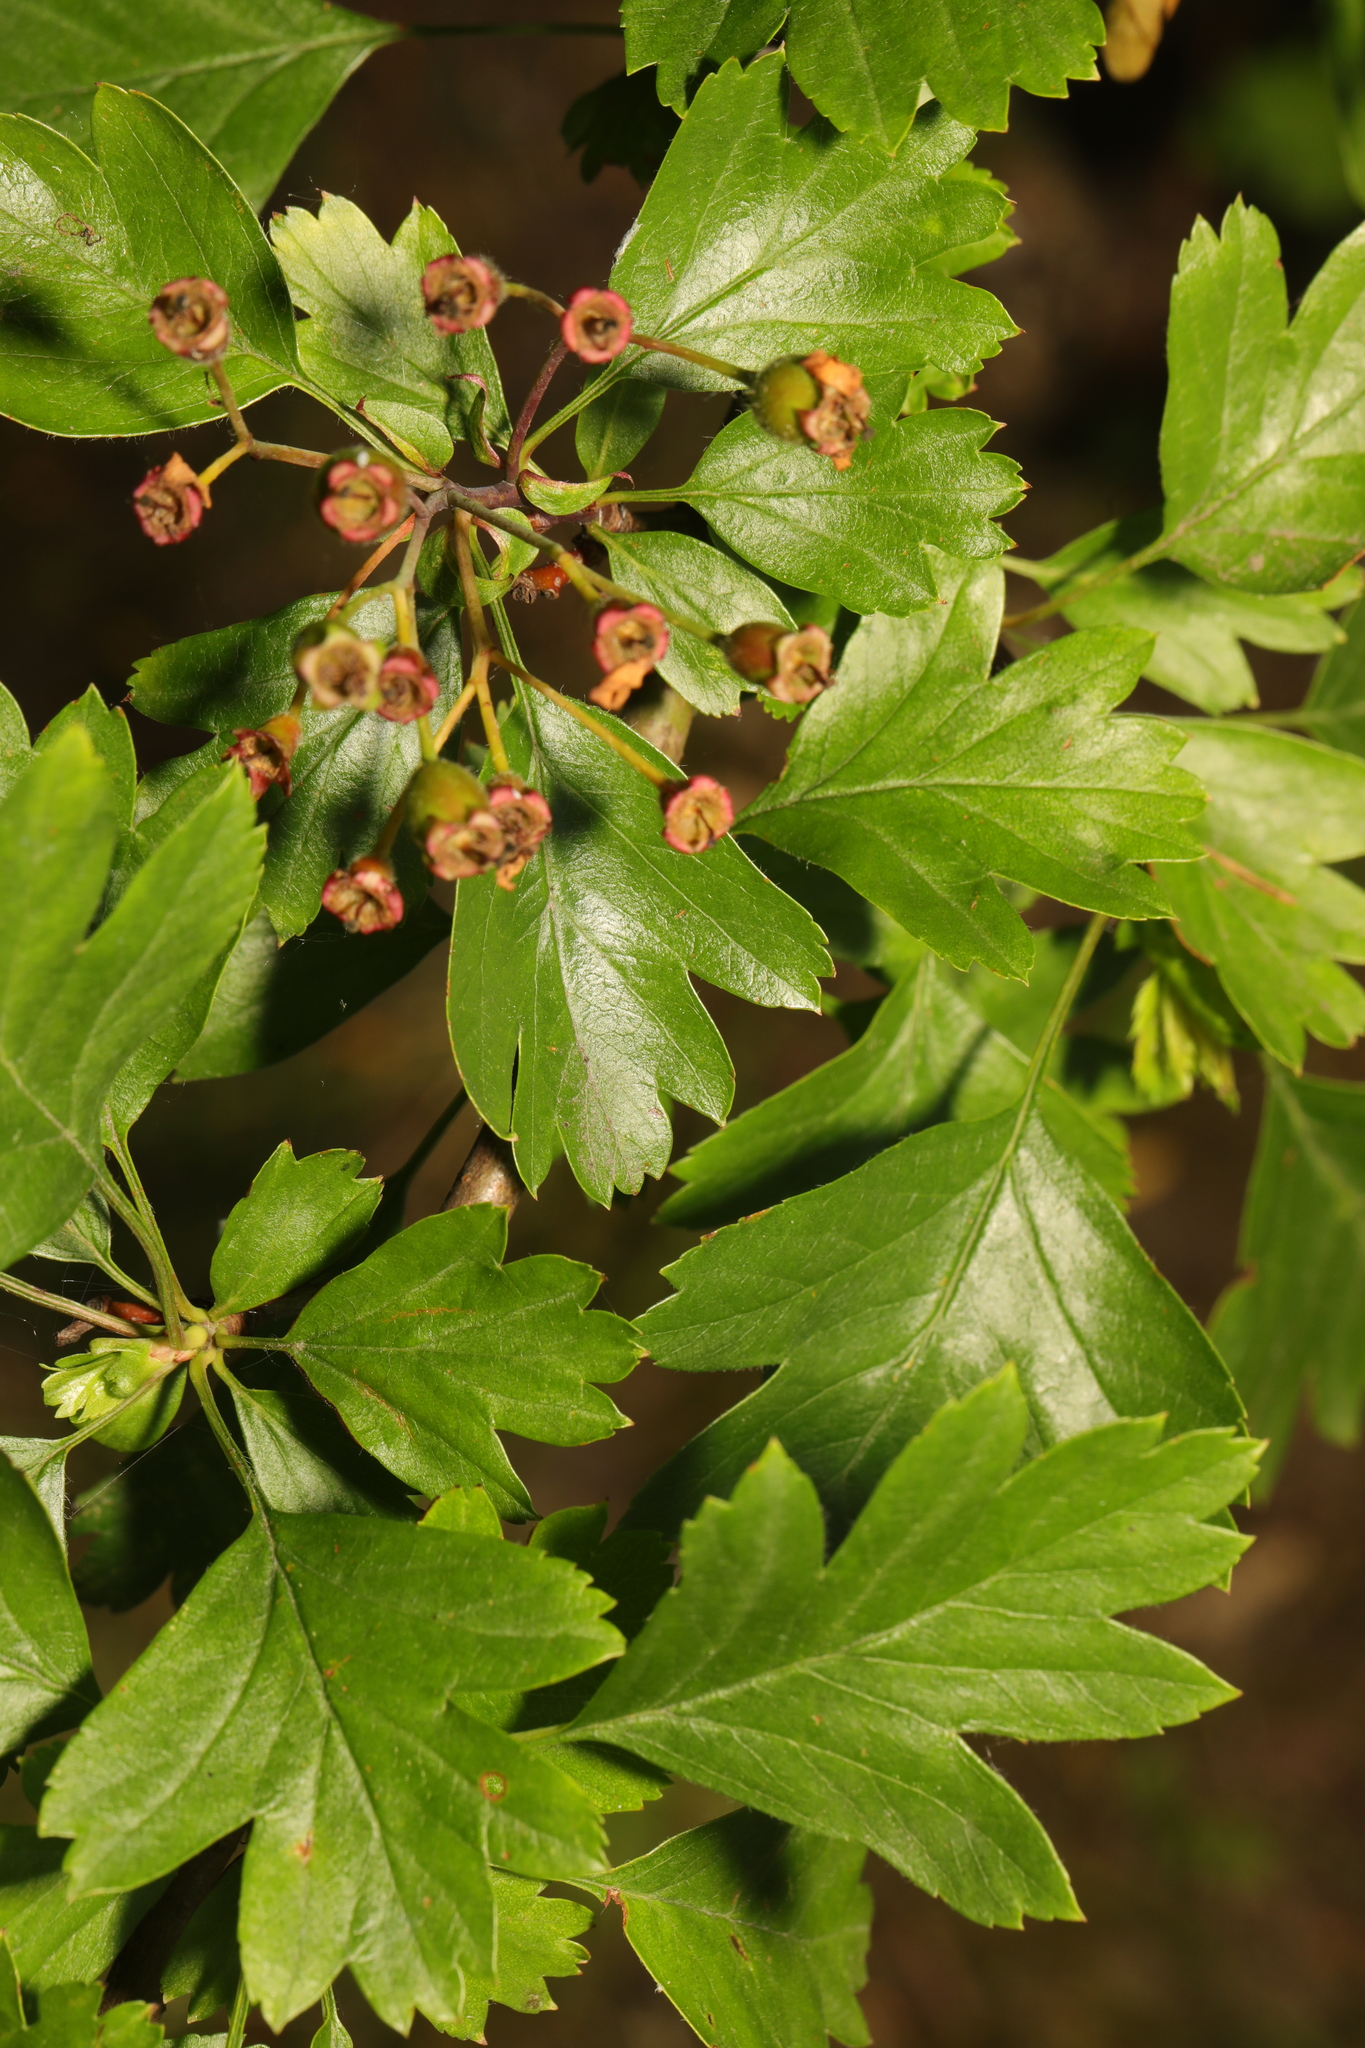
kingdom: Plantae
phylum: Tracheophyta
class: Magnoliopsida
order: Rosales
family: Rosaceae
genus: Crataegus
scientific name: Crataegus monogyna
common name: Hawthorn
